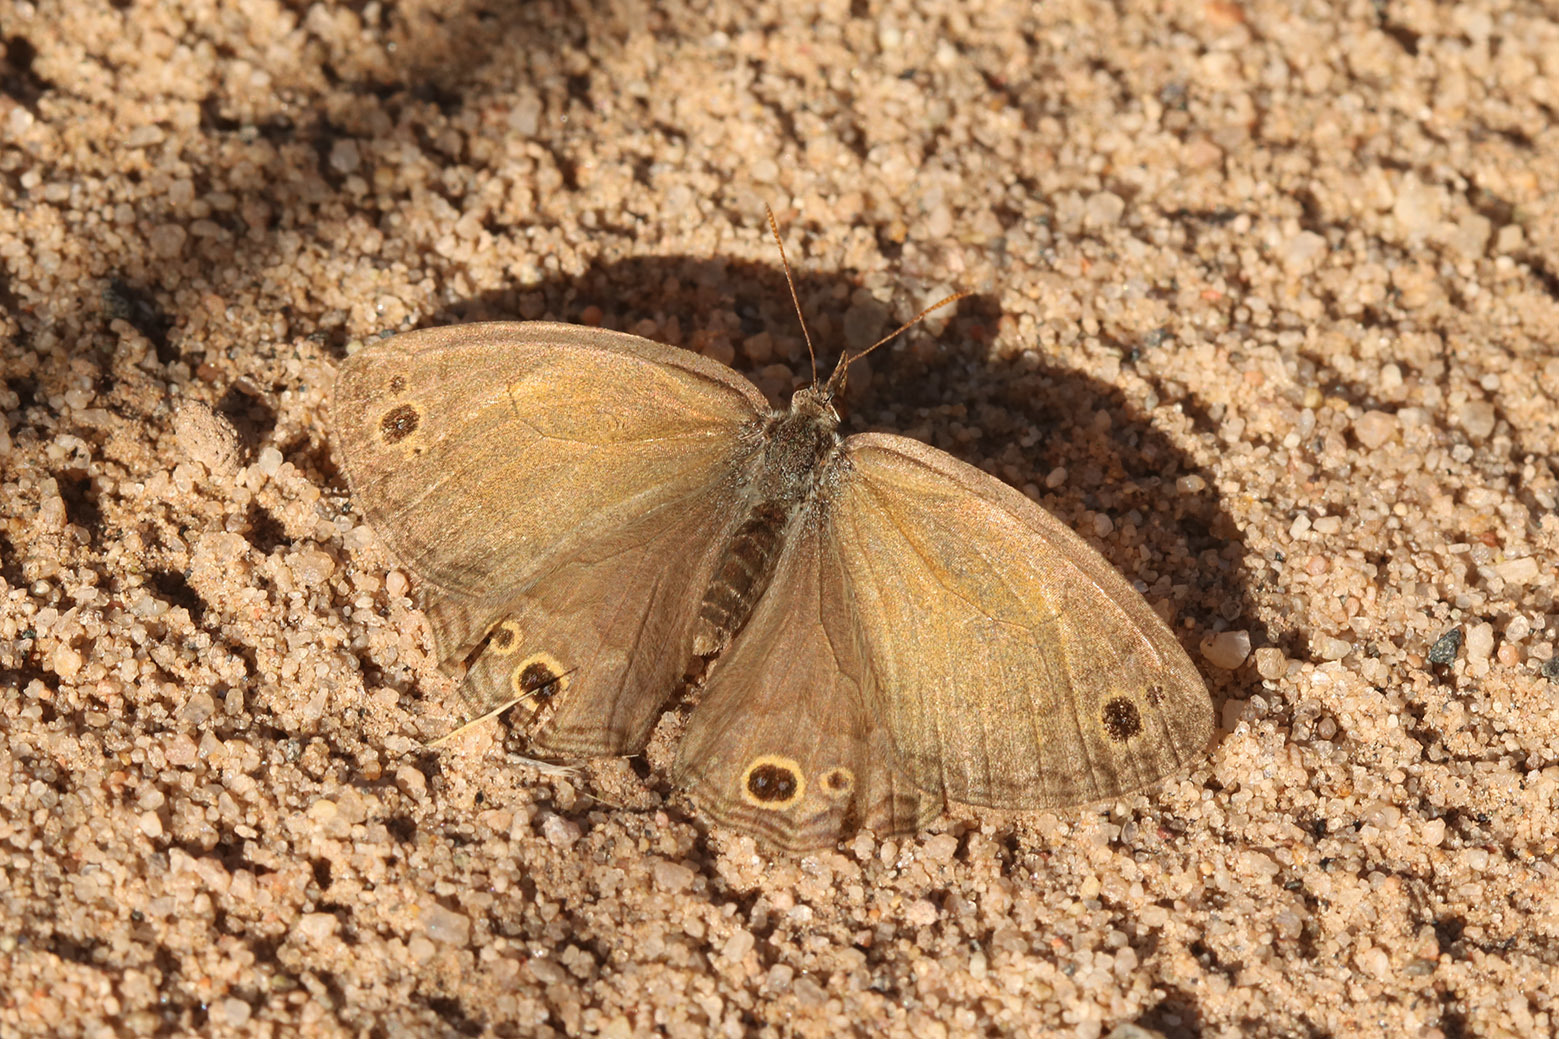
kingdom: Animalia
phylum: Arthropoda
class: Insecta
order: Lepidoptera
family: Nymphalidae
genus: Pharneuptychia
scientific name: Pharneuptychia phares
